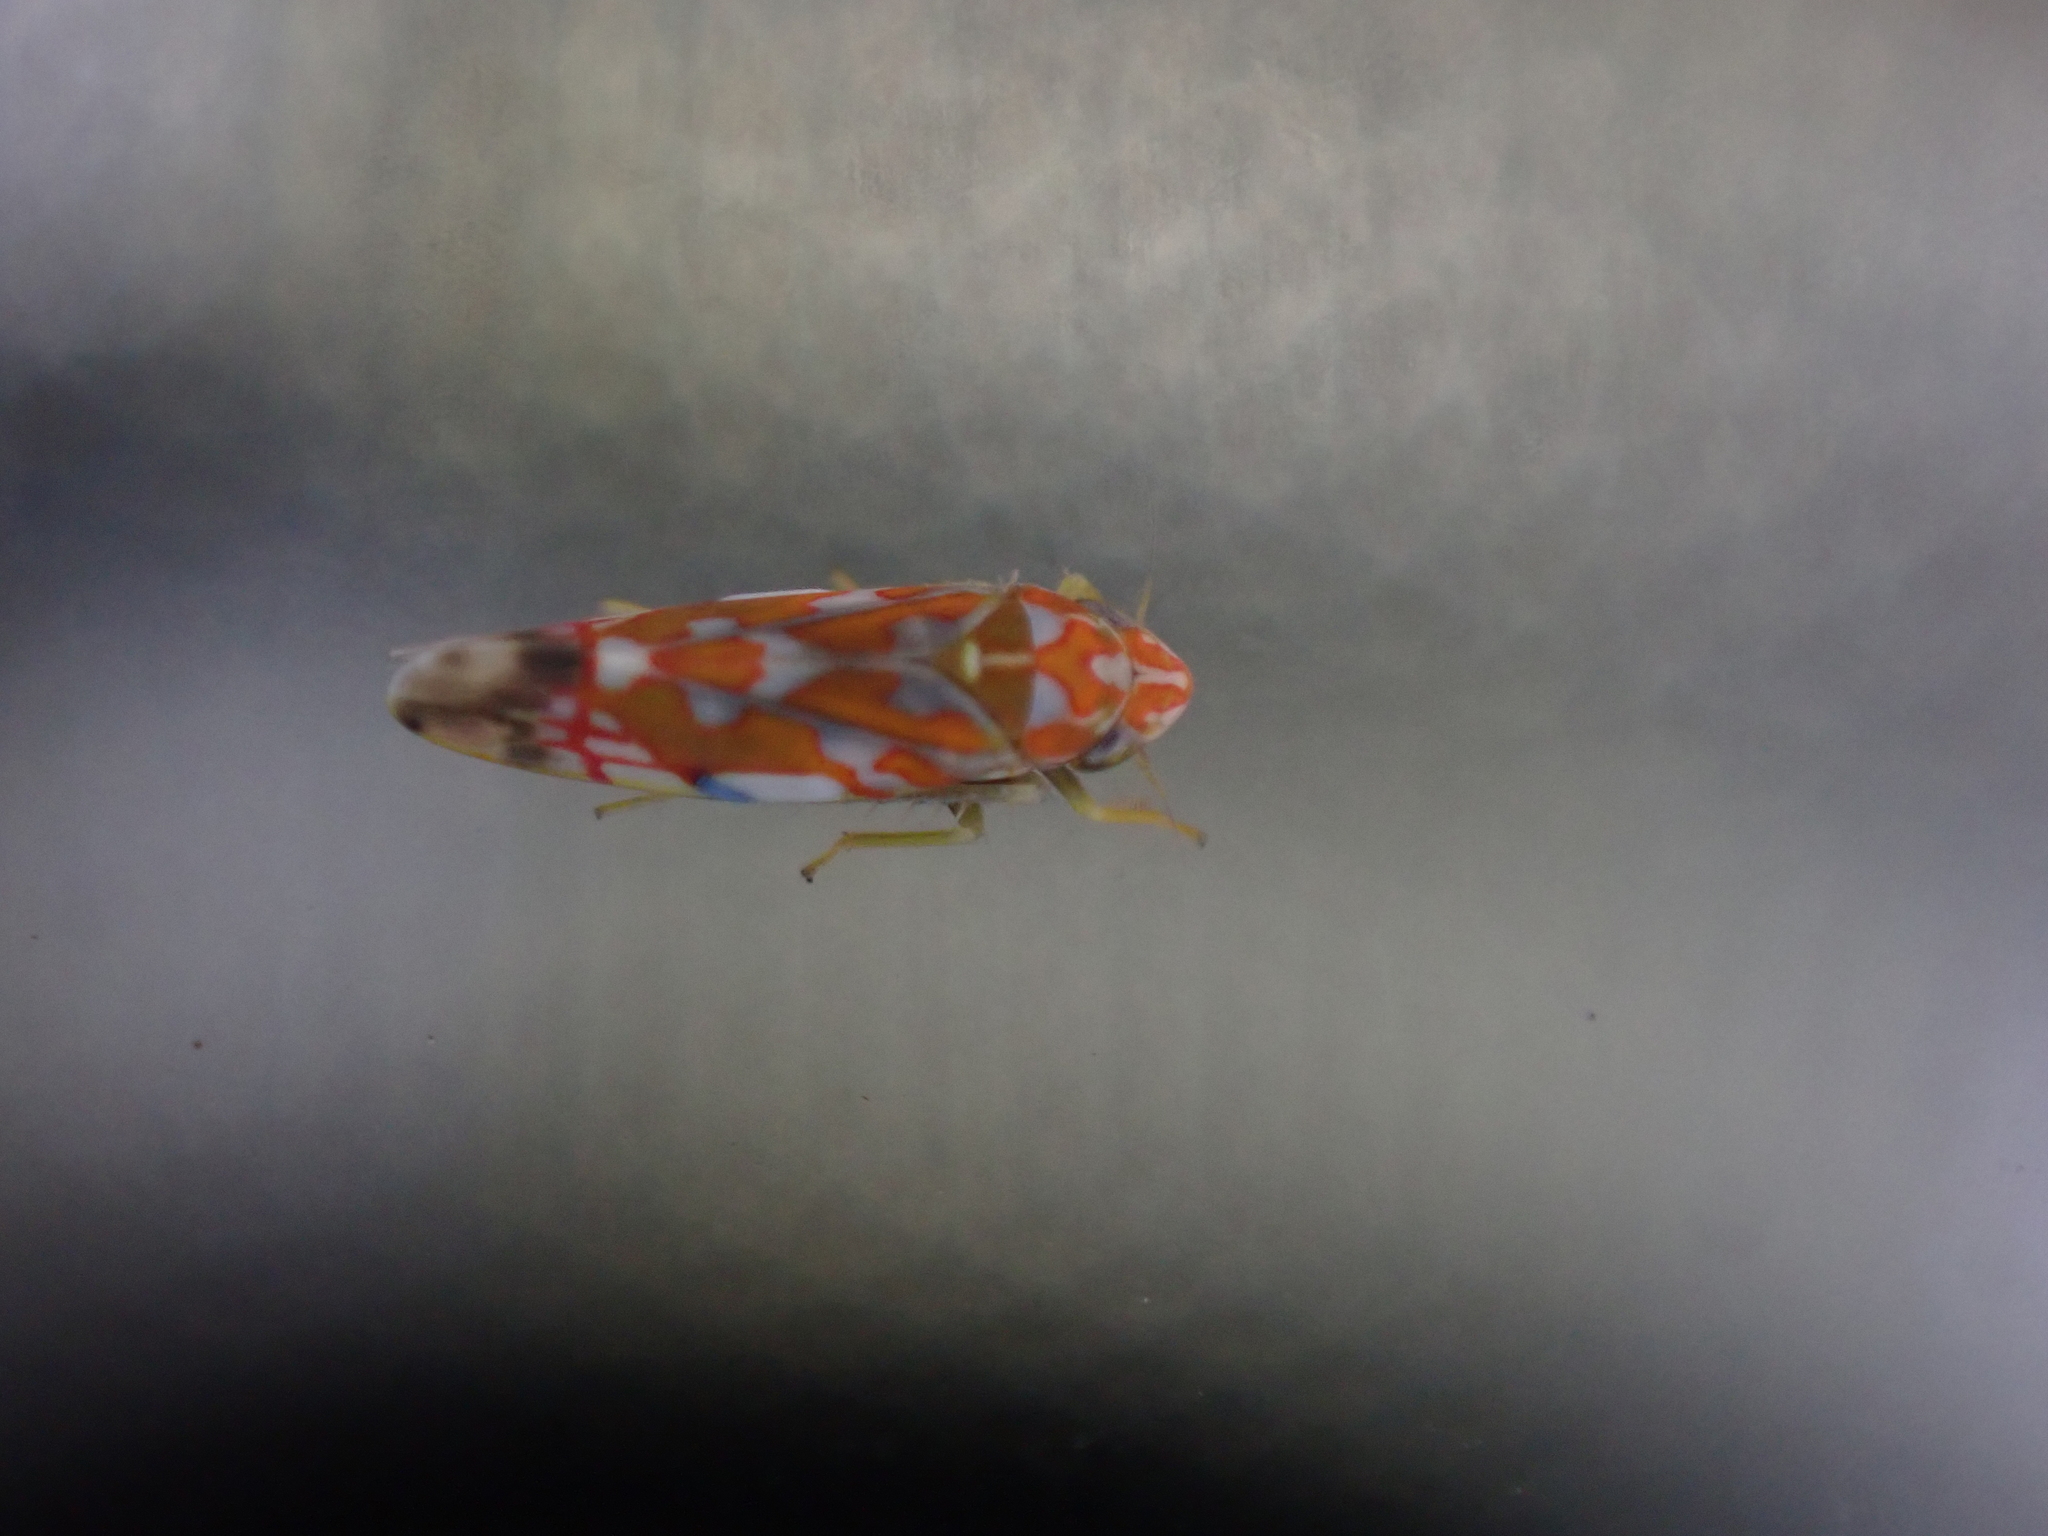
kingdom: Animalia
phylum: Arthropoda
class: Insecta
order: Hemiptera
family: Cicadellidae
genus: Erythroneura
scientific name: Erythroneura rubra
